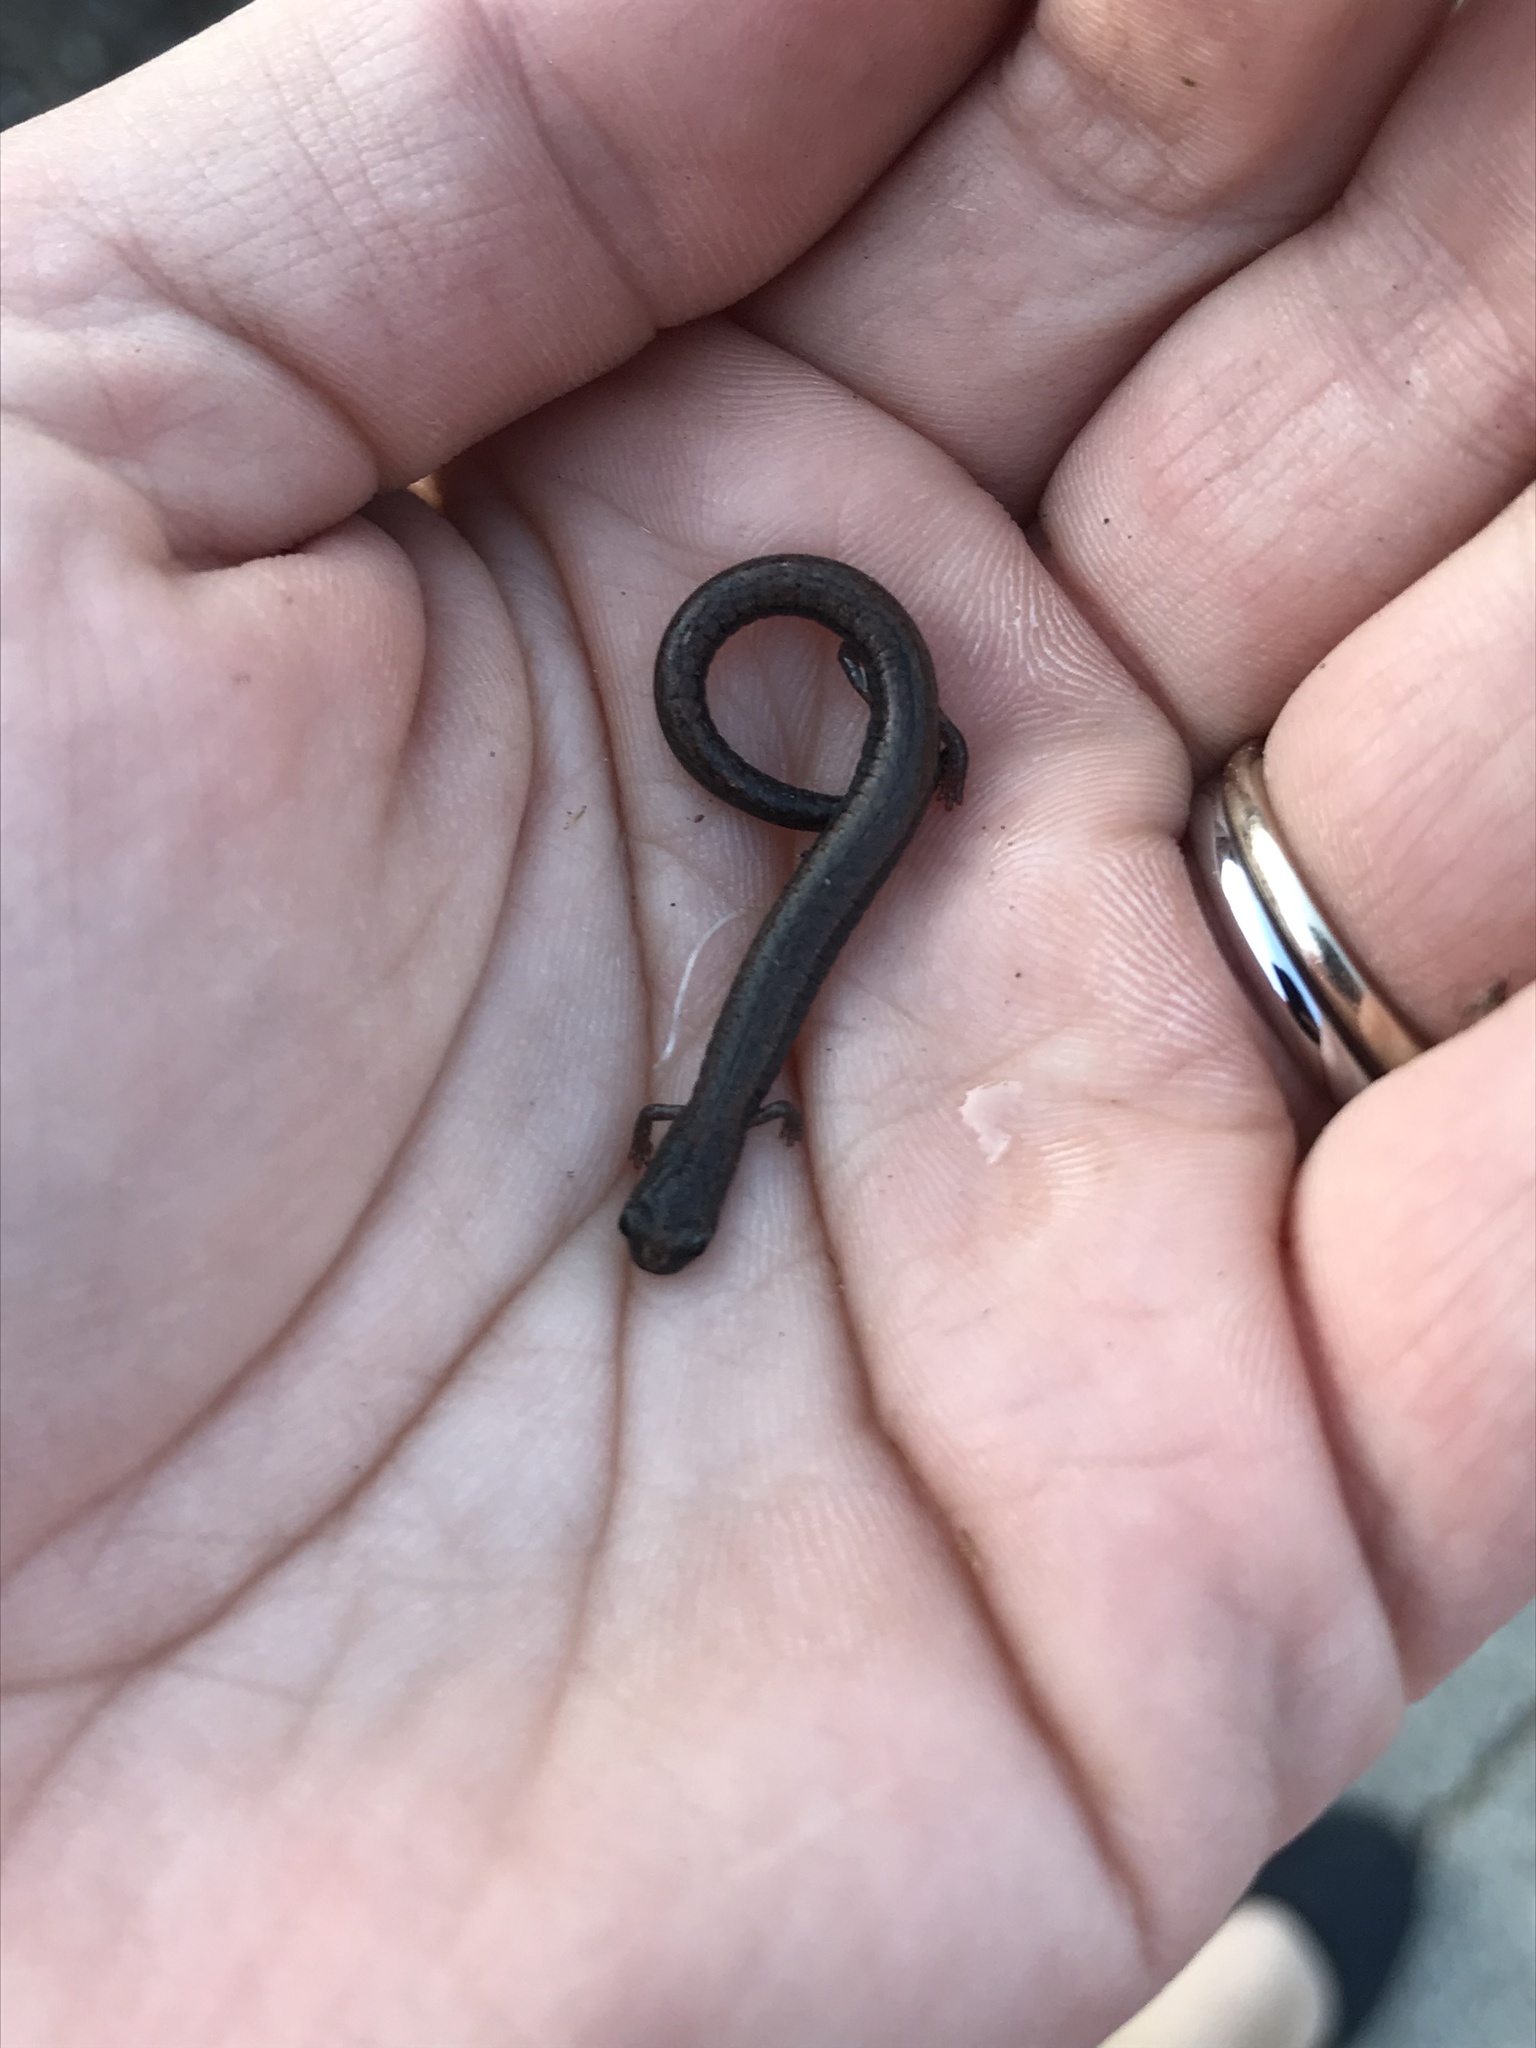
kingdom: Animalia
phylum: Chordata
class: Amphibia
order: Caudata
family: Plethodontidae
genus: Batrachoseps
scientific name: Batrachoseps nigriventris
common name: Black-bellied slender salamander
